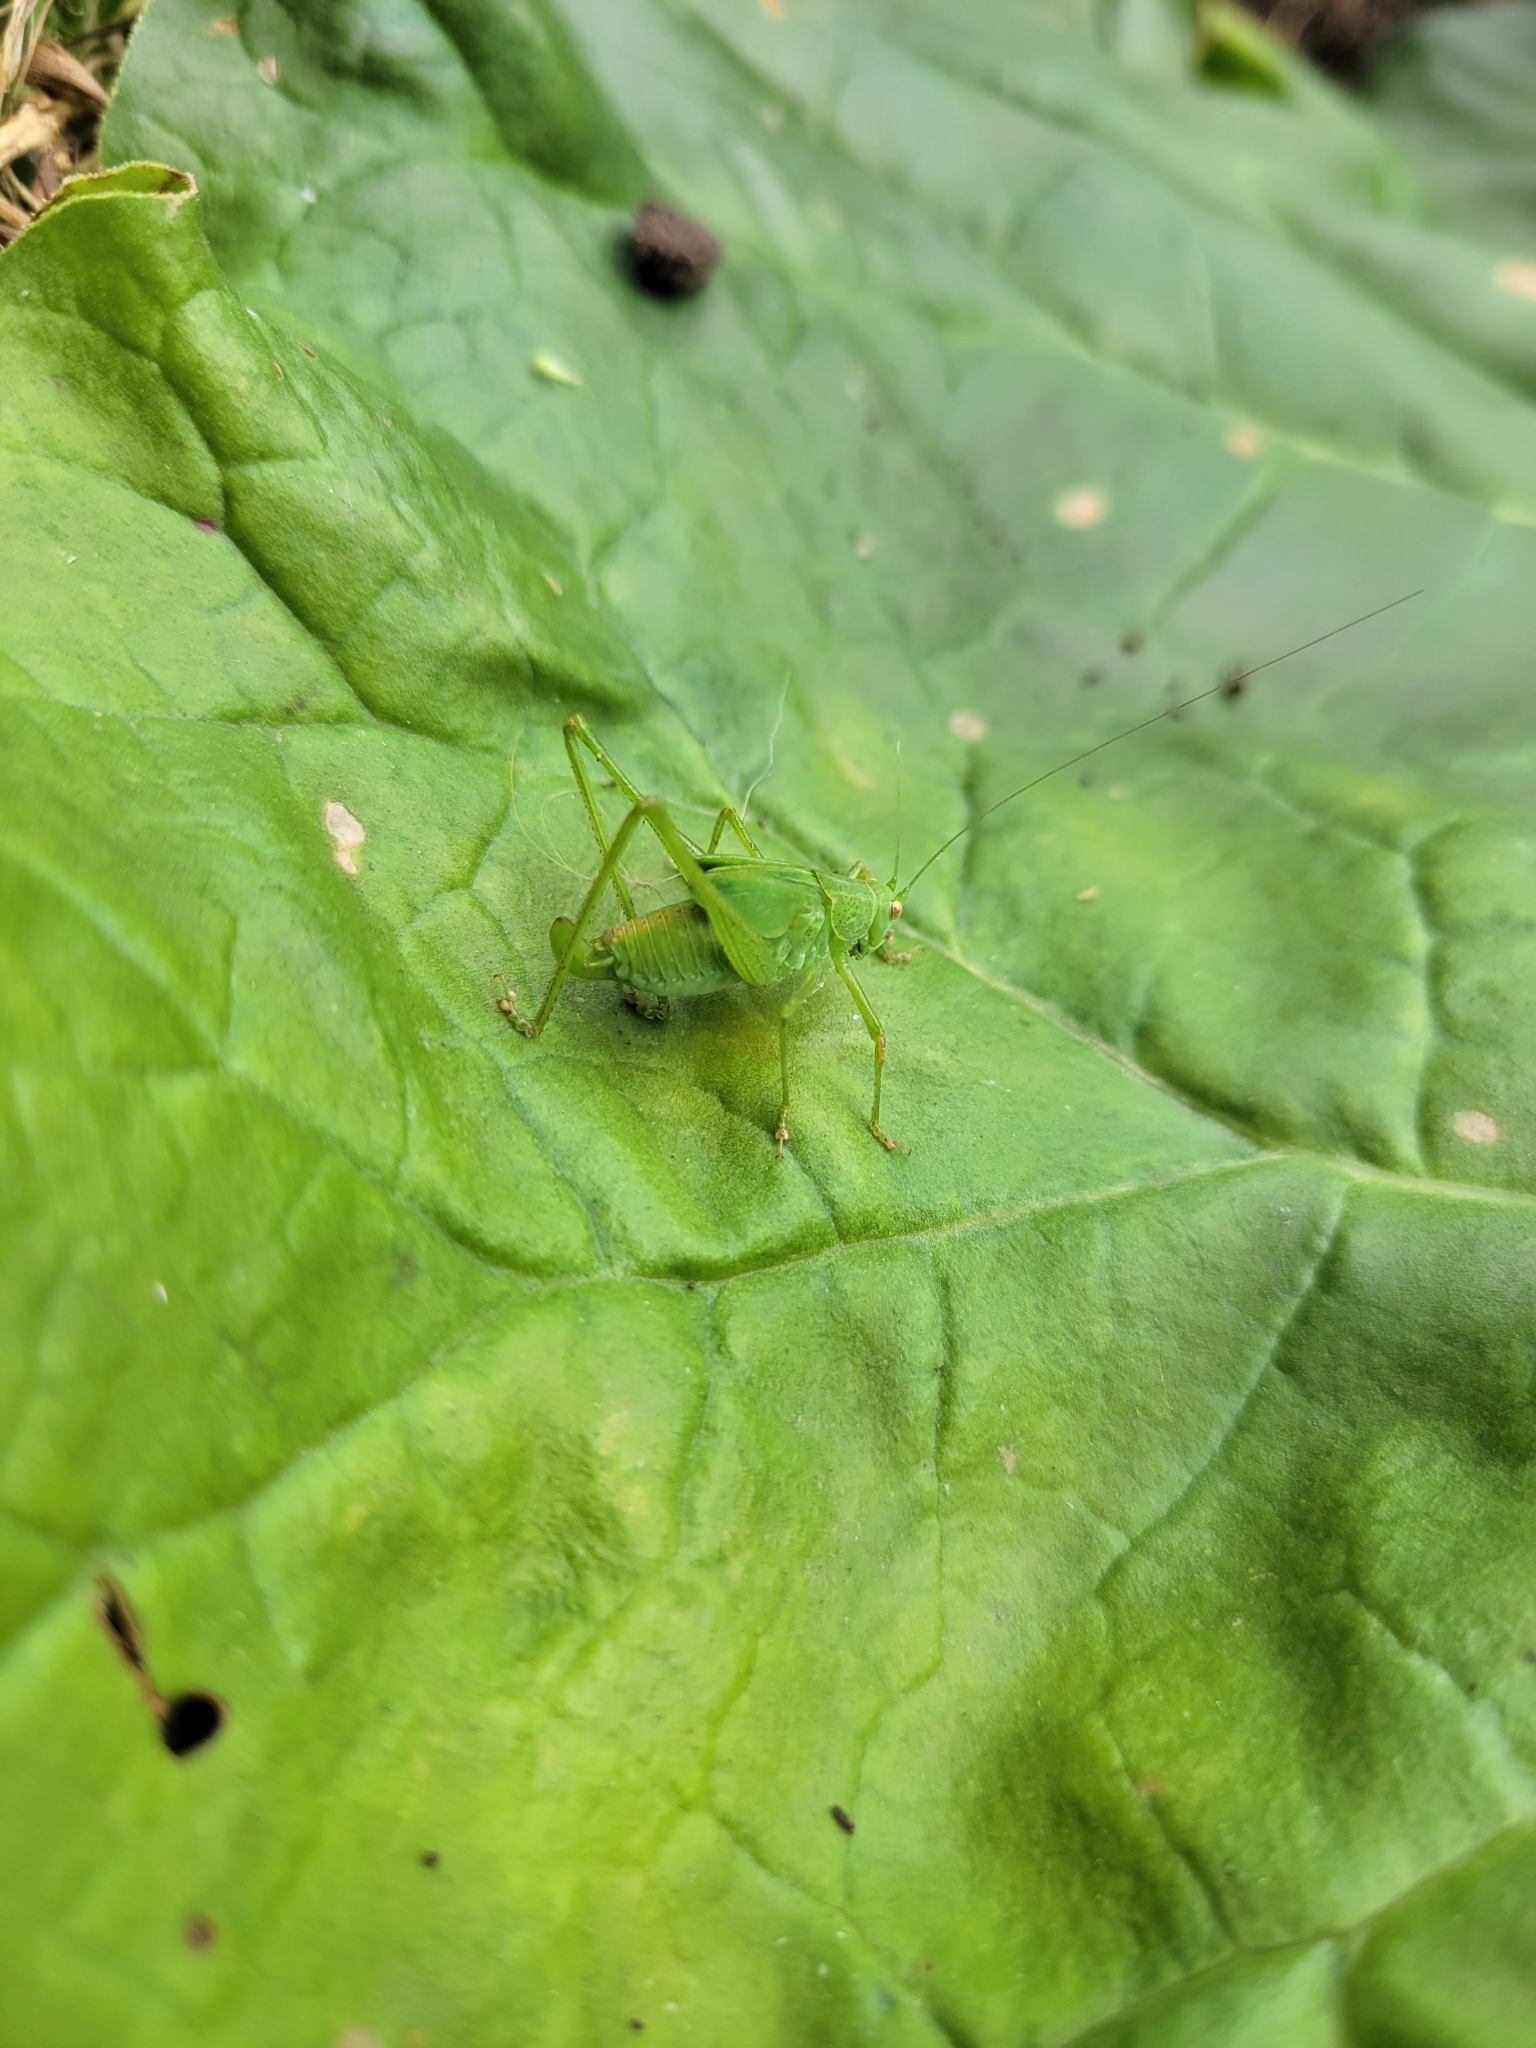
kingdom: Animalia
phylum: Arthropoda
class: Insecta
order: Orthoptera
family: Tettigoniidae
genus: Phaneroptera
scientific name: Phaneroptera nana
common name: Southern sickle bush-cricket
